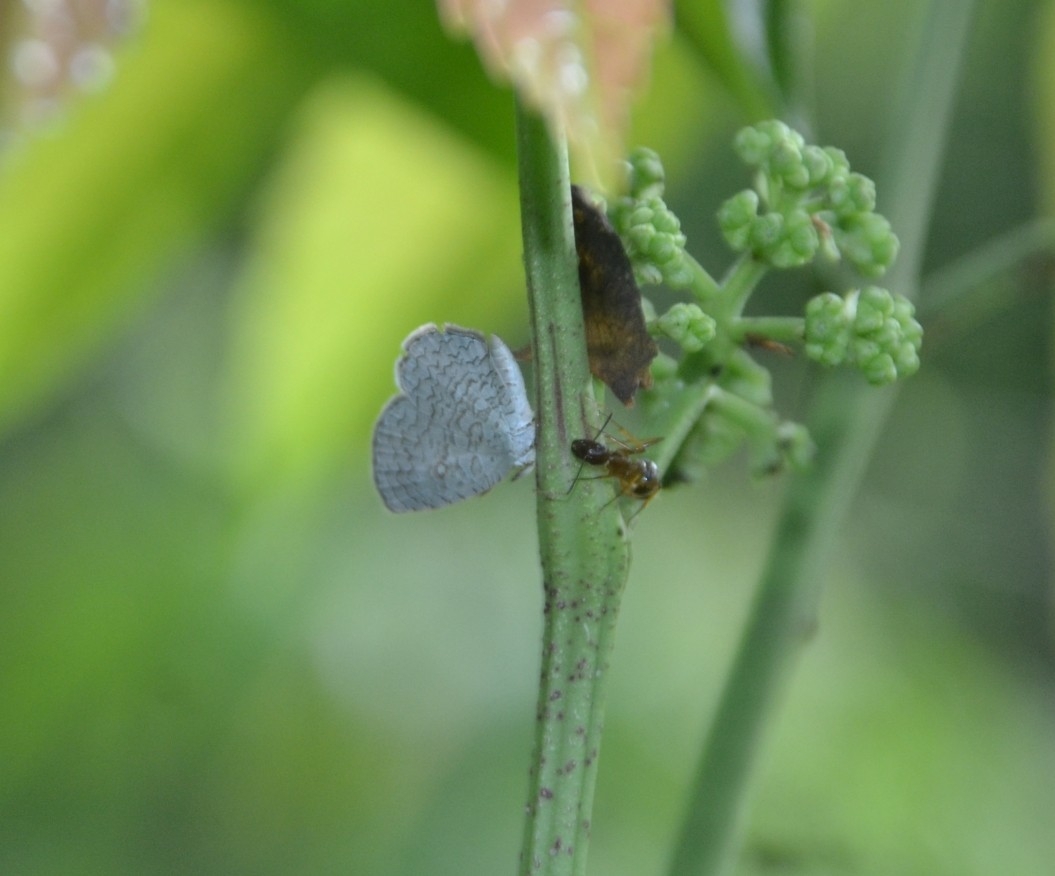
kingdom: Animalia
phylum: Arthropoda
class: Insecta
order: Lepidoptera
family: Lycaenidae
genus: Spalgis
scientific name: Spalgis epius
